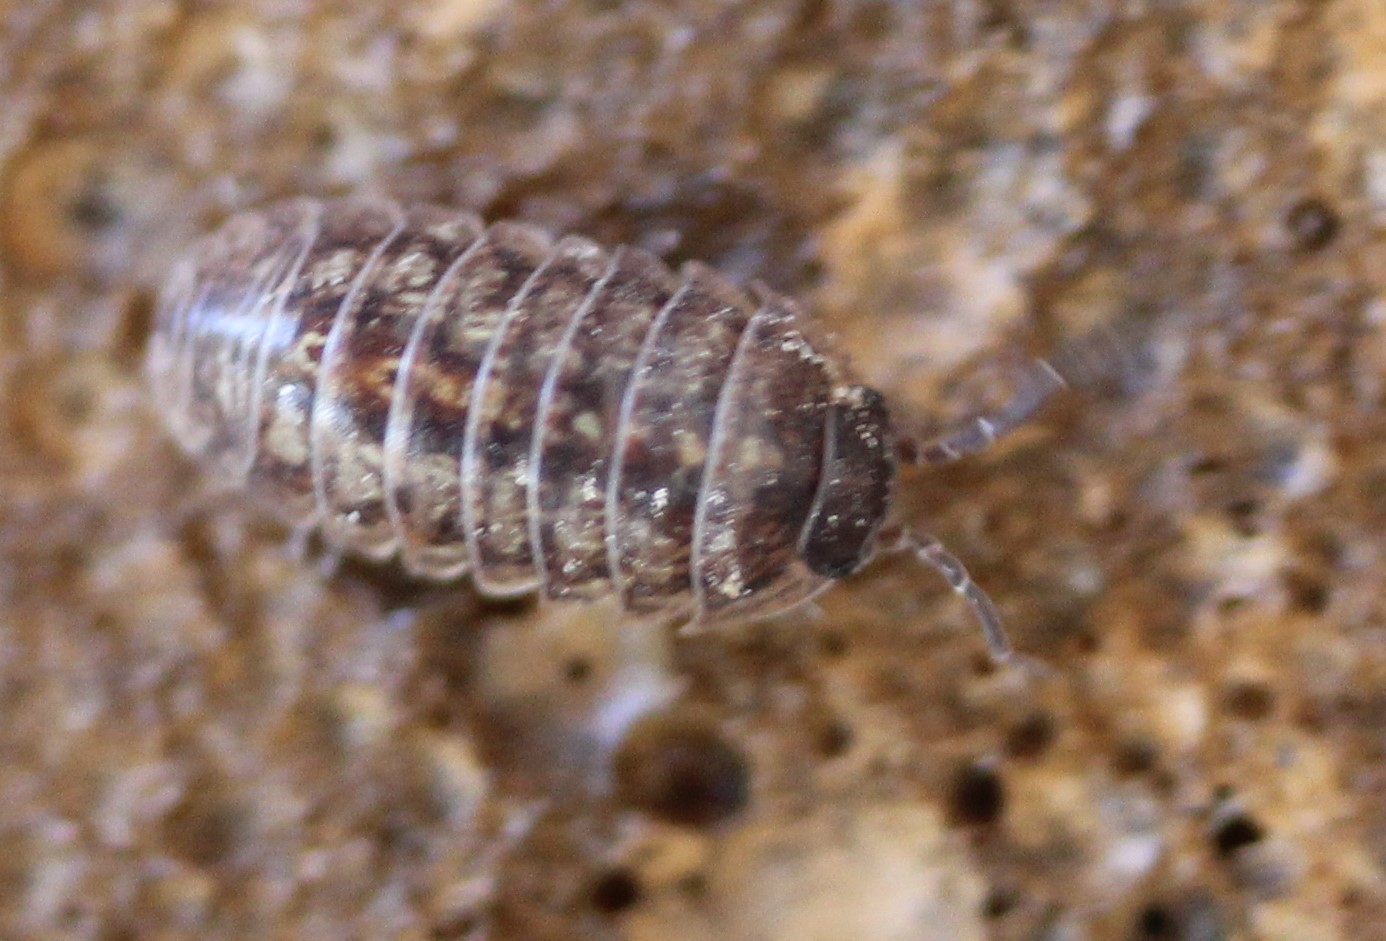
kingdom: Animalia
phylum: Arthropoda
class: Malacostraca
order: Isopoda
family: Armadillidiidae
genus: Armadillidium
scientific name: Armadillidium vulgare
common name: Common pill woodlouse
